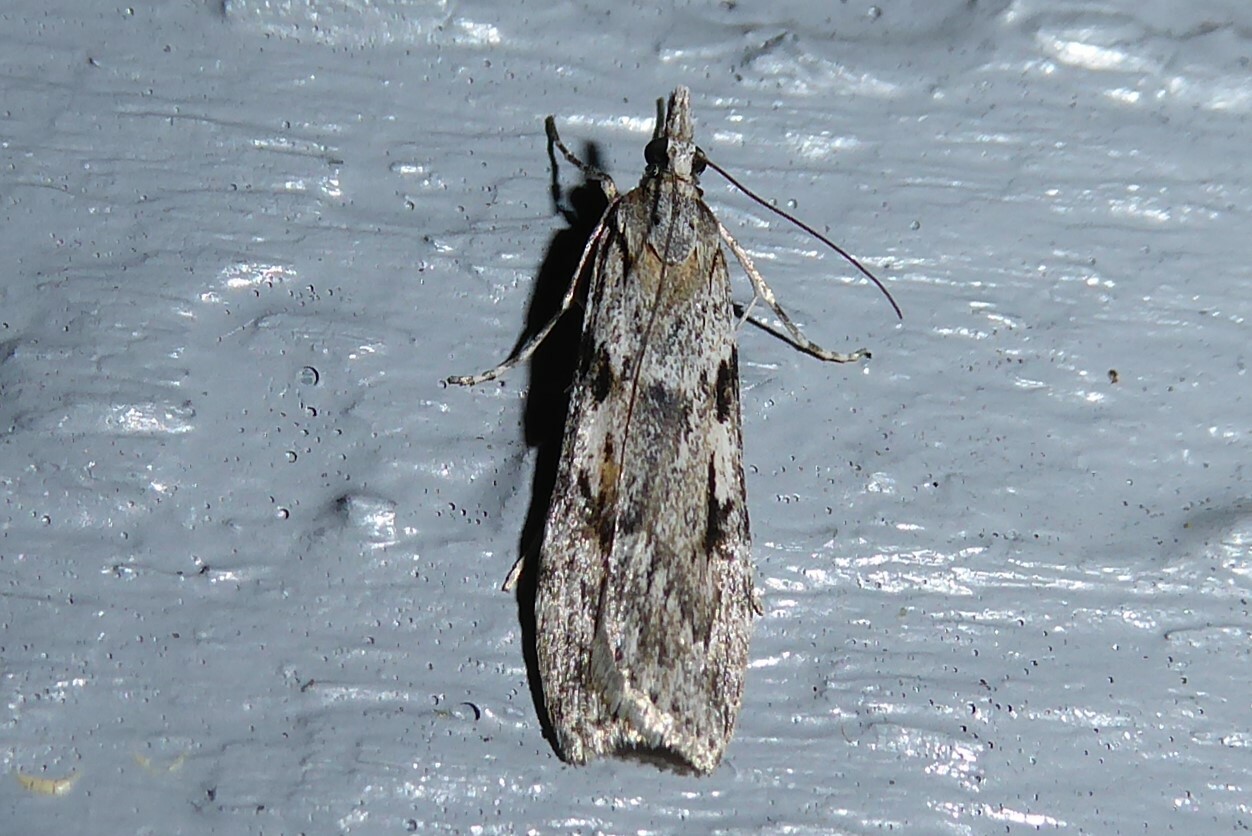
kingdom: Animalia
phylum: Arthropoda
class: Insecta
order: Lepidoptera
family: Crambidae
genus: Scoparia
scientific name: Scoparia halopis
